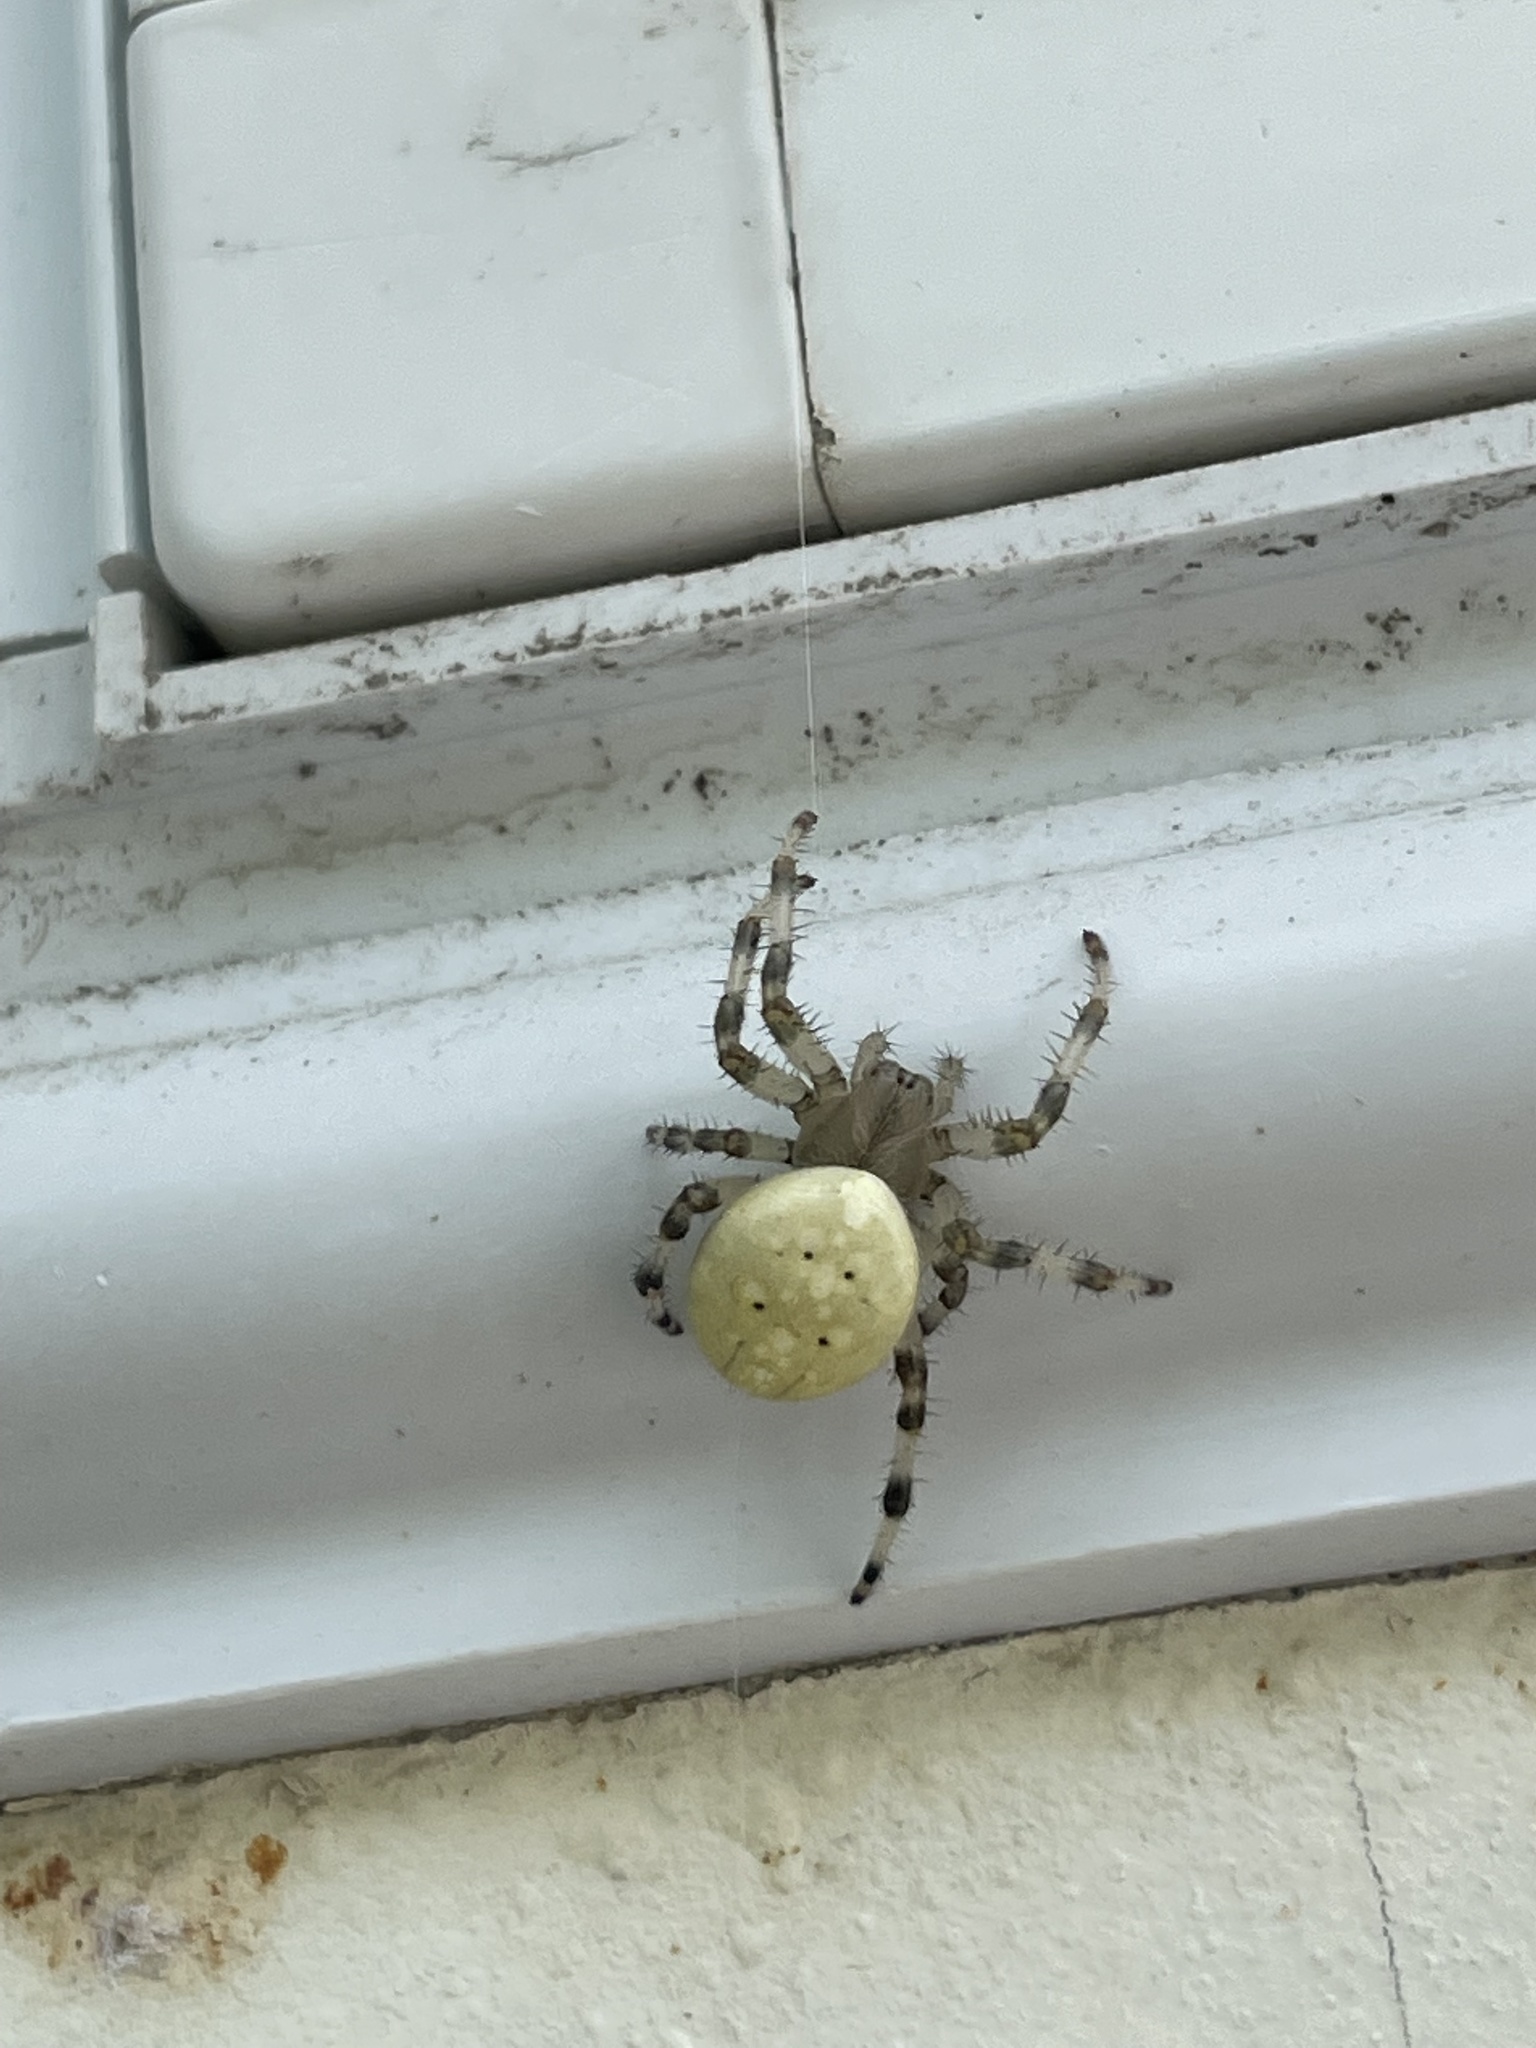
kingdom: Animalia
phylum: Arthropoda
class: Arachnida
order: Araneae
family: Araneidae
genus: Araneus
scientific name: Araneus trifolium
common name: Shamrock orbweaver
